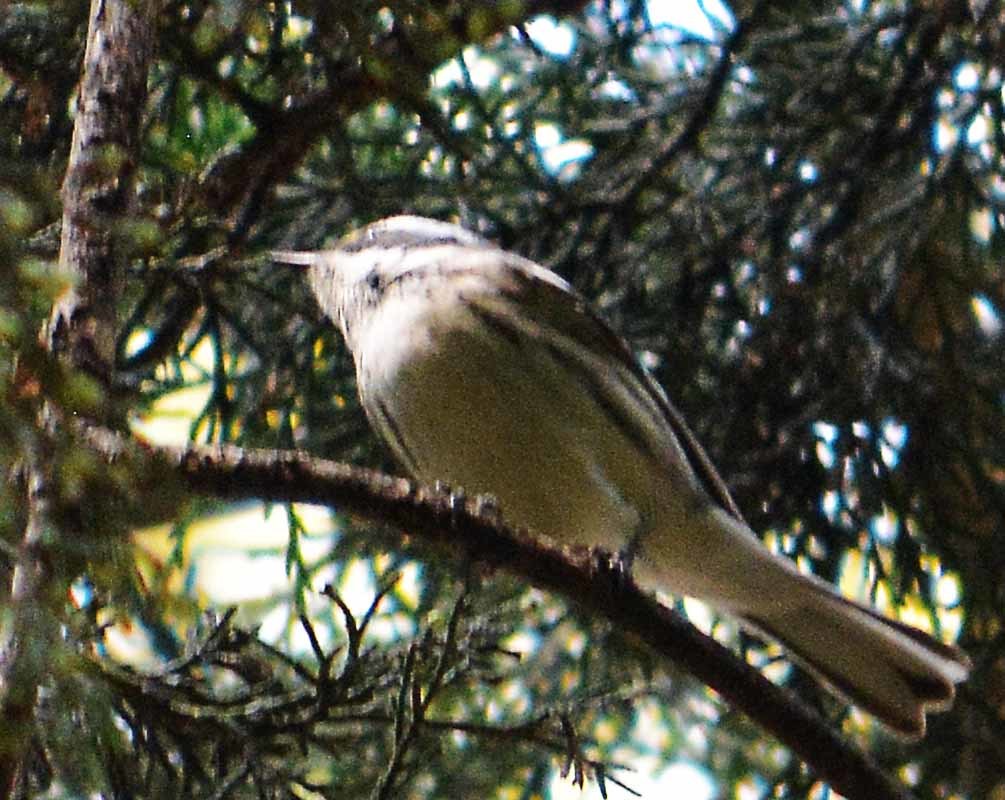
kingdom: Animalia
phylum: Chordata
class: Aves
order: Passeriformes
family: Parulidae
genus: Setophaga
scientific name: Setophaga nigrescens
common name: Black-throated gray warbler
